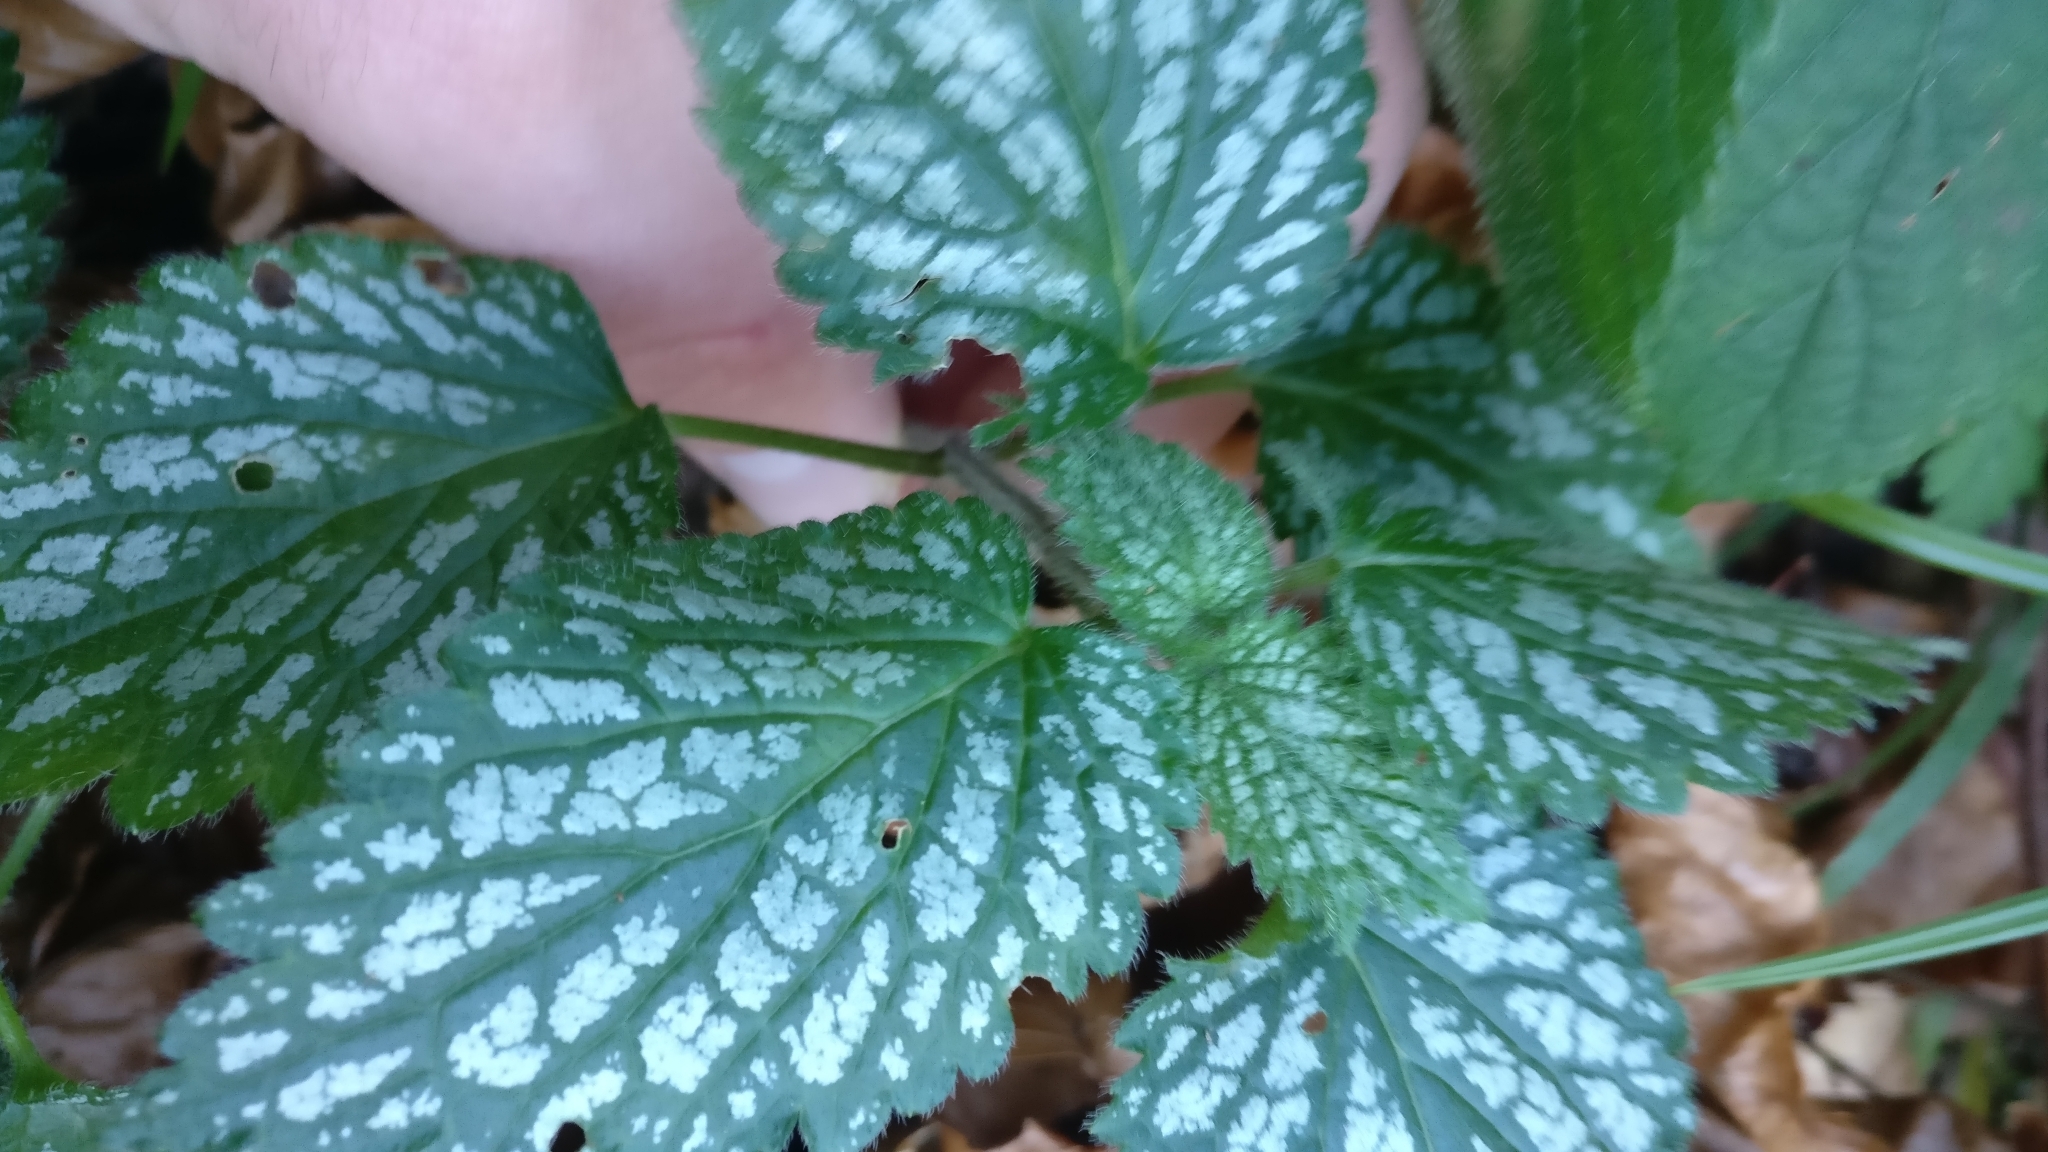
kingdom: Plantae
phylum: Tracheophyta
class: Magnoliopsida
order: Lamiales
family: Lamiaceae
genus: Lamium
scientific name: Lamium galeobdolon
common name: Yellow archangel
